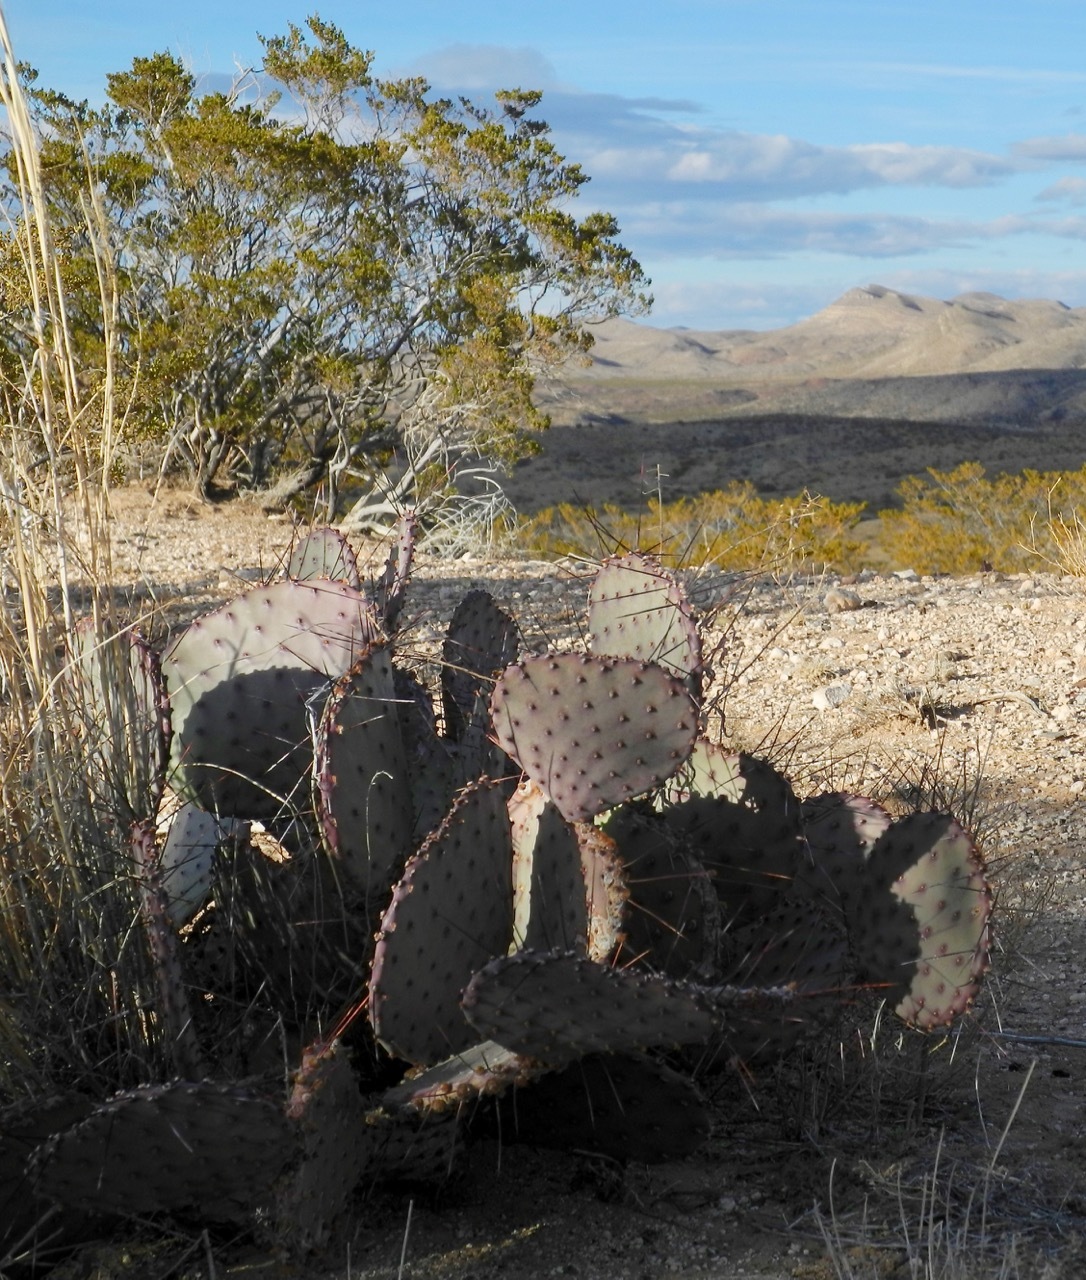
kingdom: Plantae
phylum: Tracheophyta
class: Magnoliopsida
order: Caryophyllales
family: Cactaceae
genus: Opuntia
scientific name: Opuntia macrocentra
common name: Purple prickly-pear
